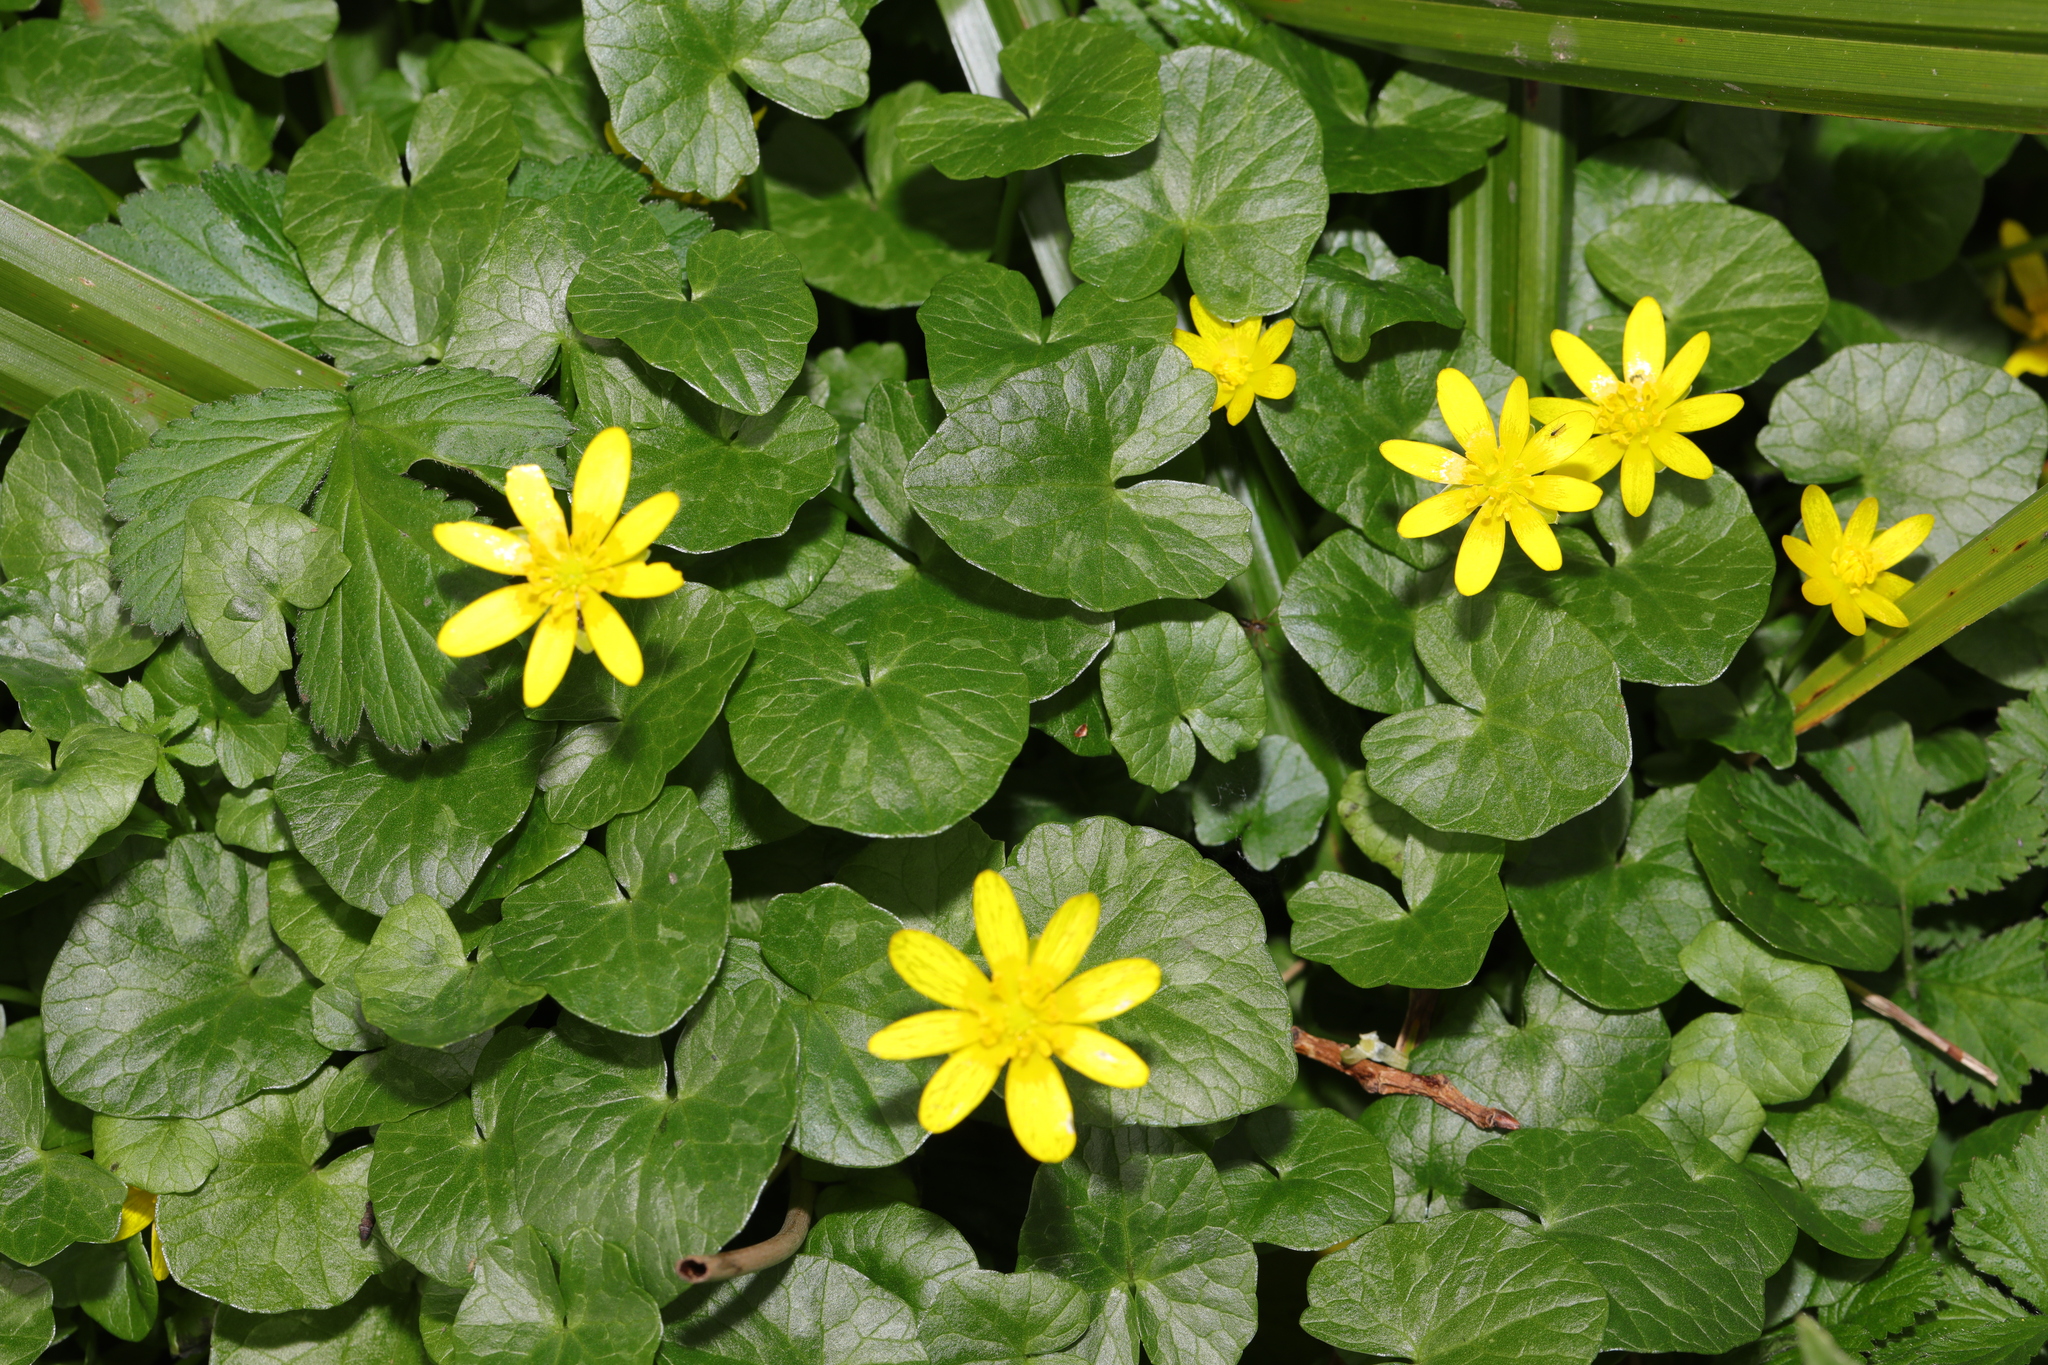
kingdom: Plantae
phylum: Tracheophyta
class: Magnoliopsida
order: Ranunculales
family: Ranunculaceae
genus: Ficaria
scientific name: Ficaria verna
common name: Lesser celandine
